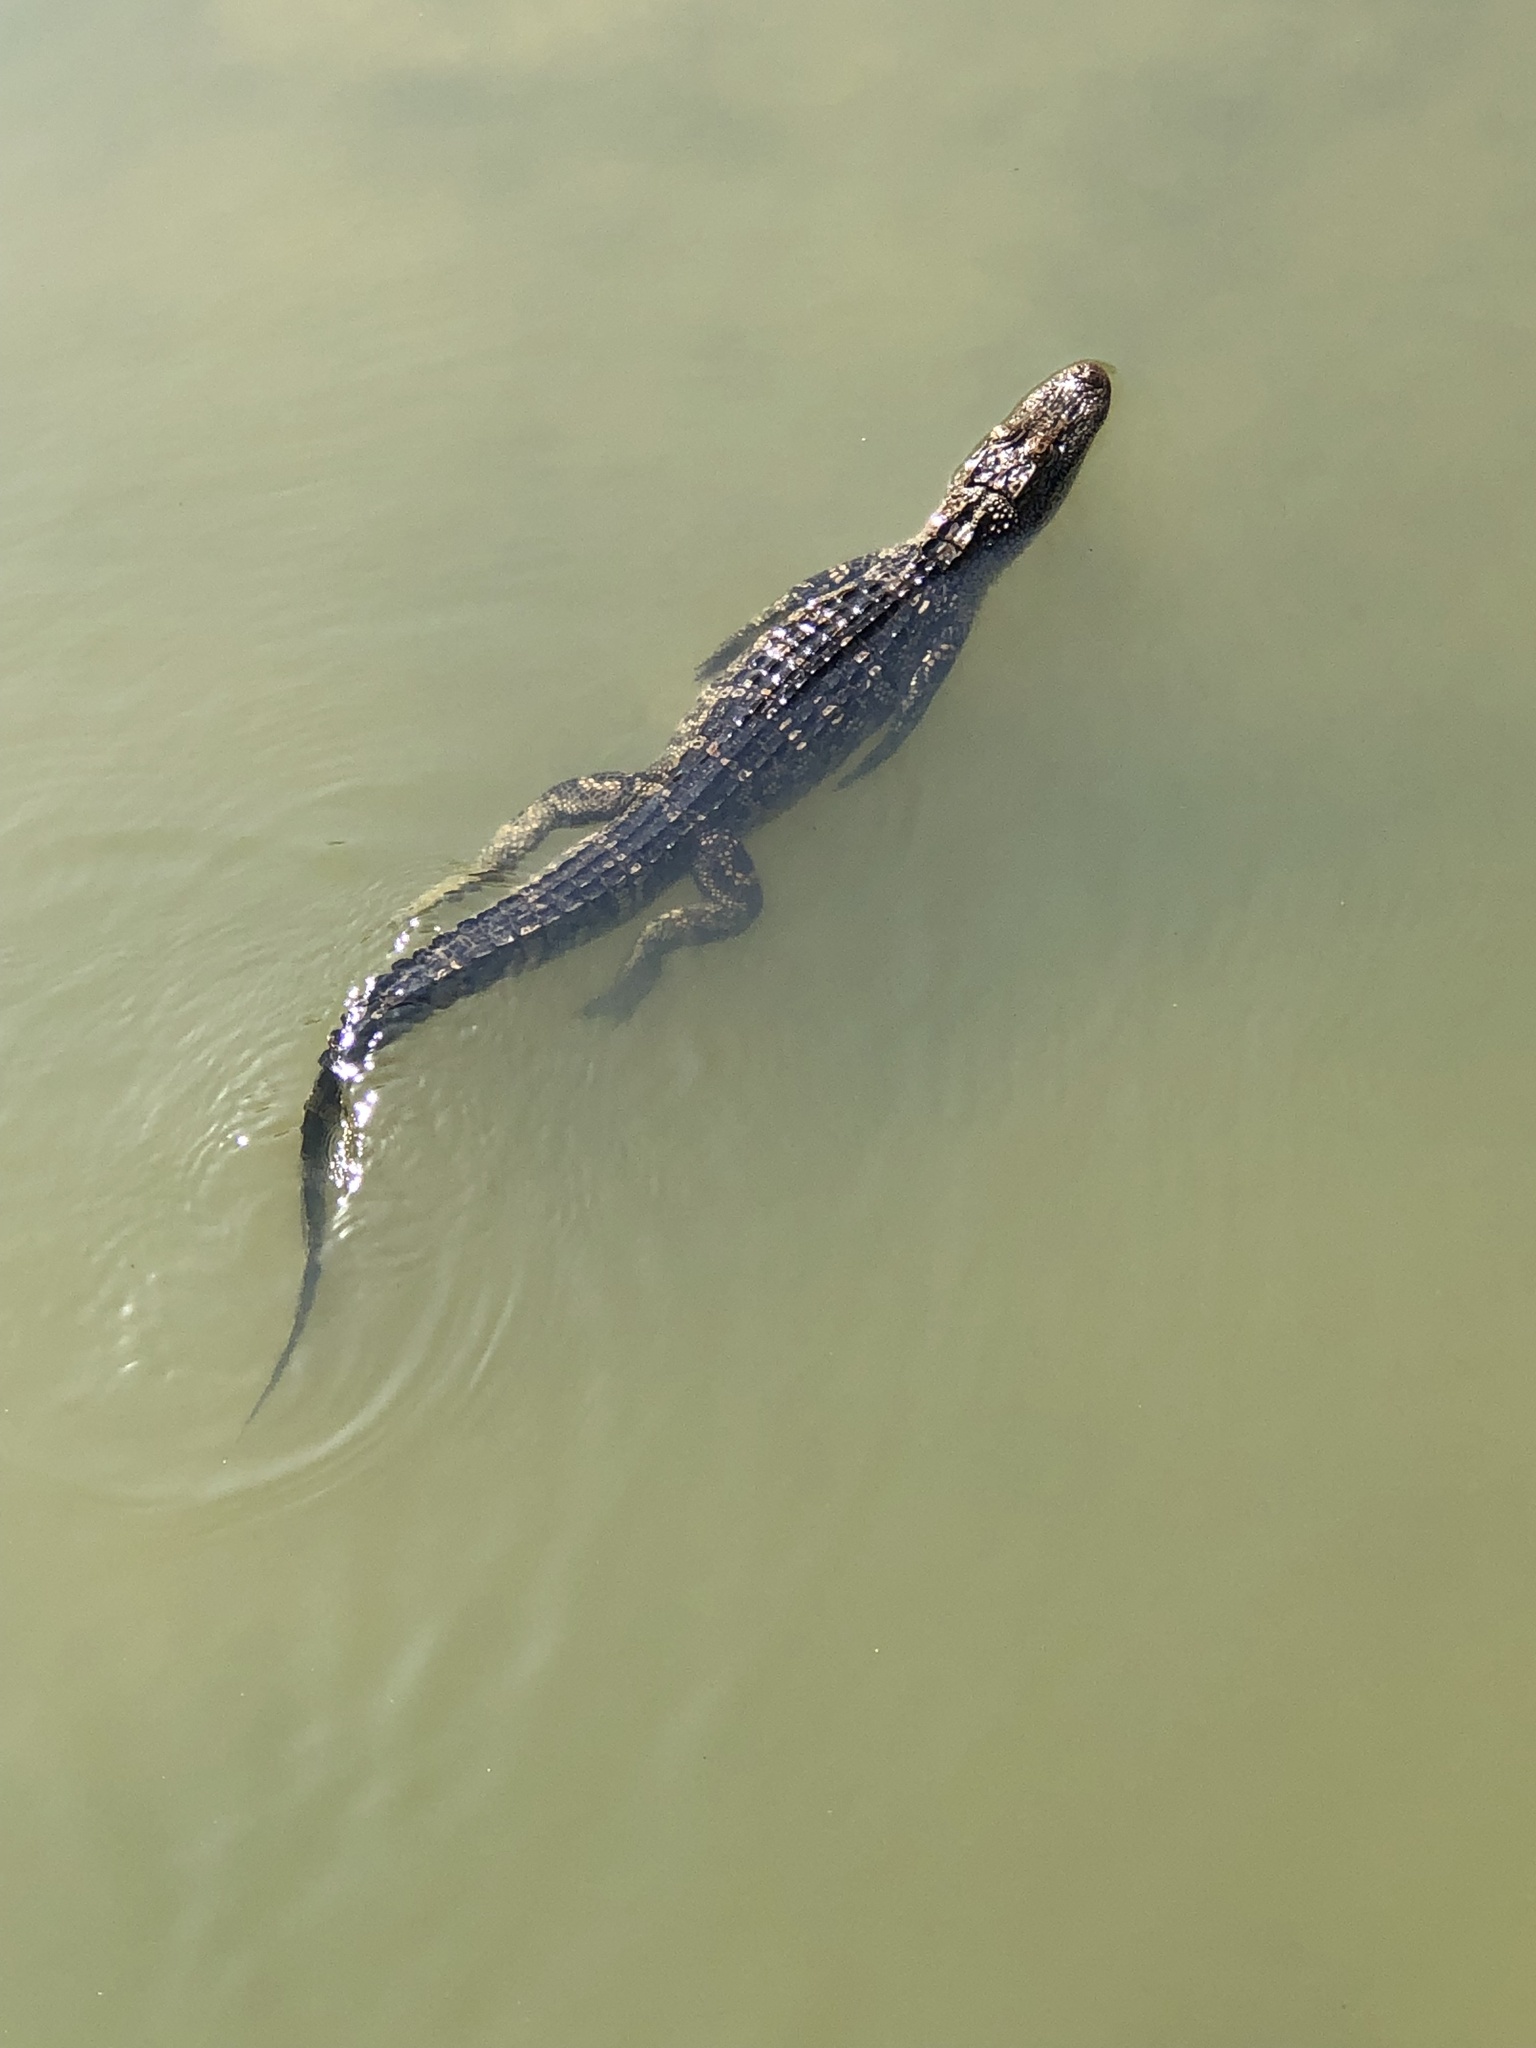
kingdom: Animalia
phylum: Chordata
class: Crocodylia
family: Alligatoridae
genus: Alligator
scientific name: Alligator mississippiensis
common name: American alligator
